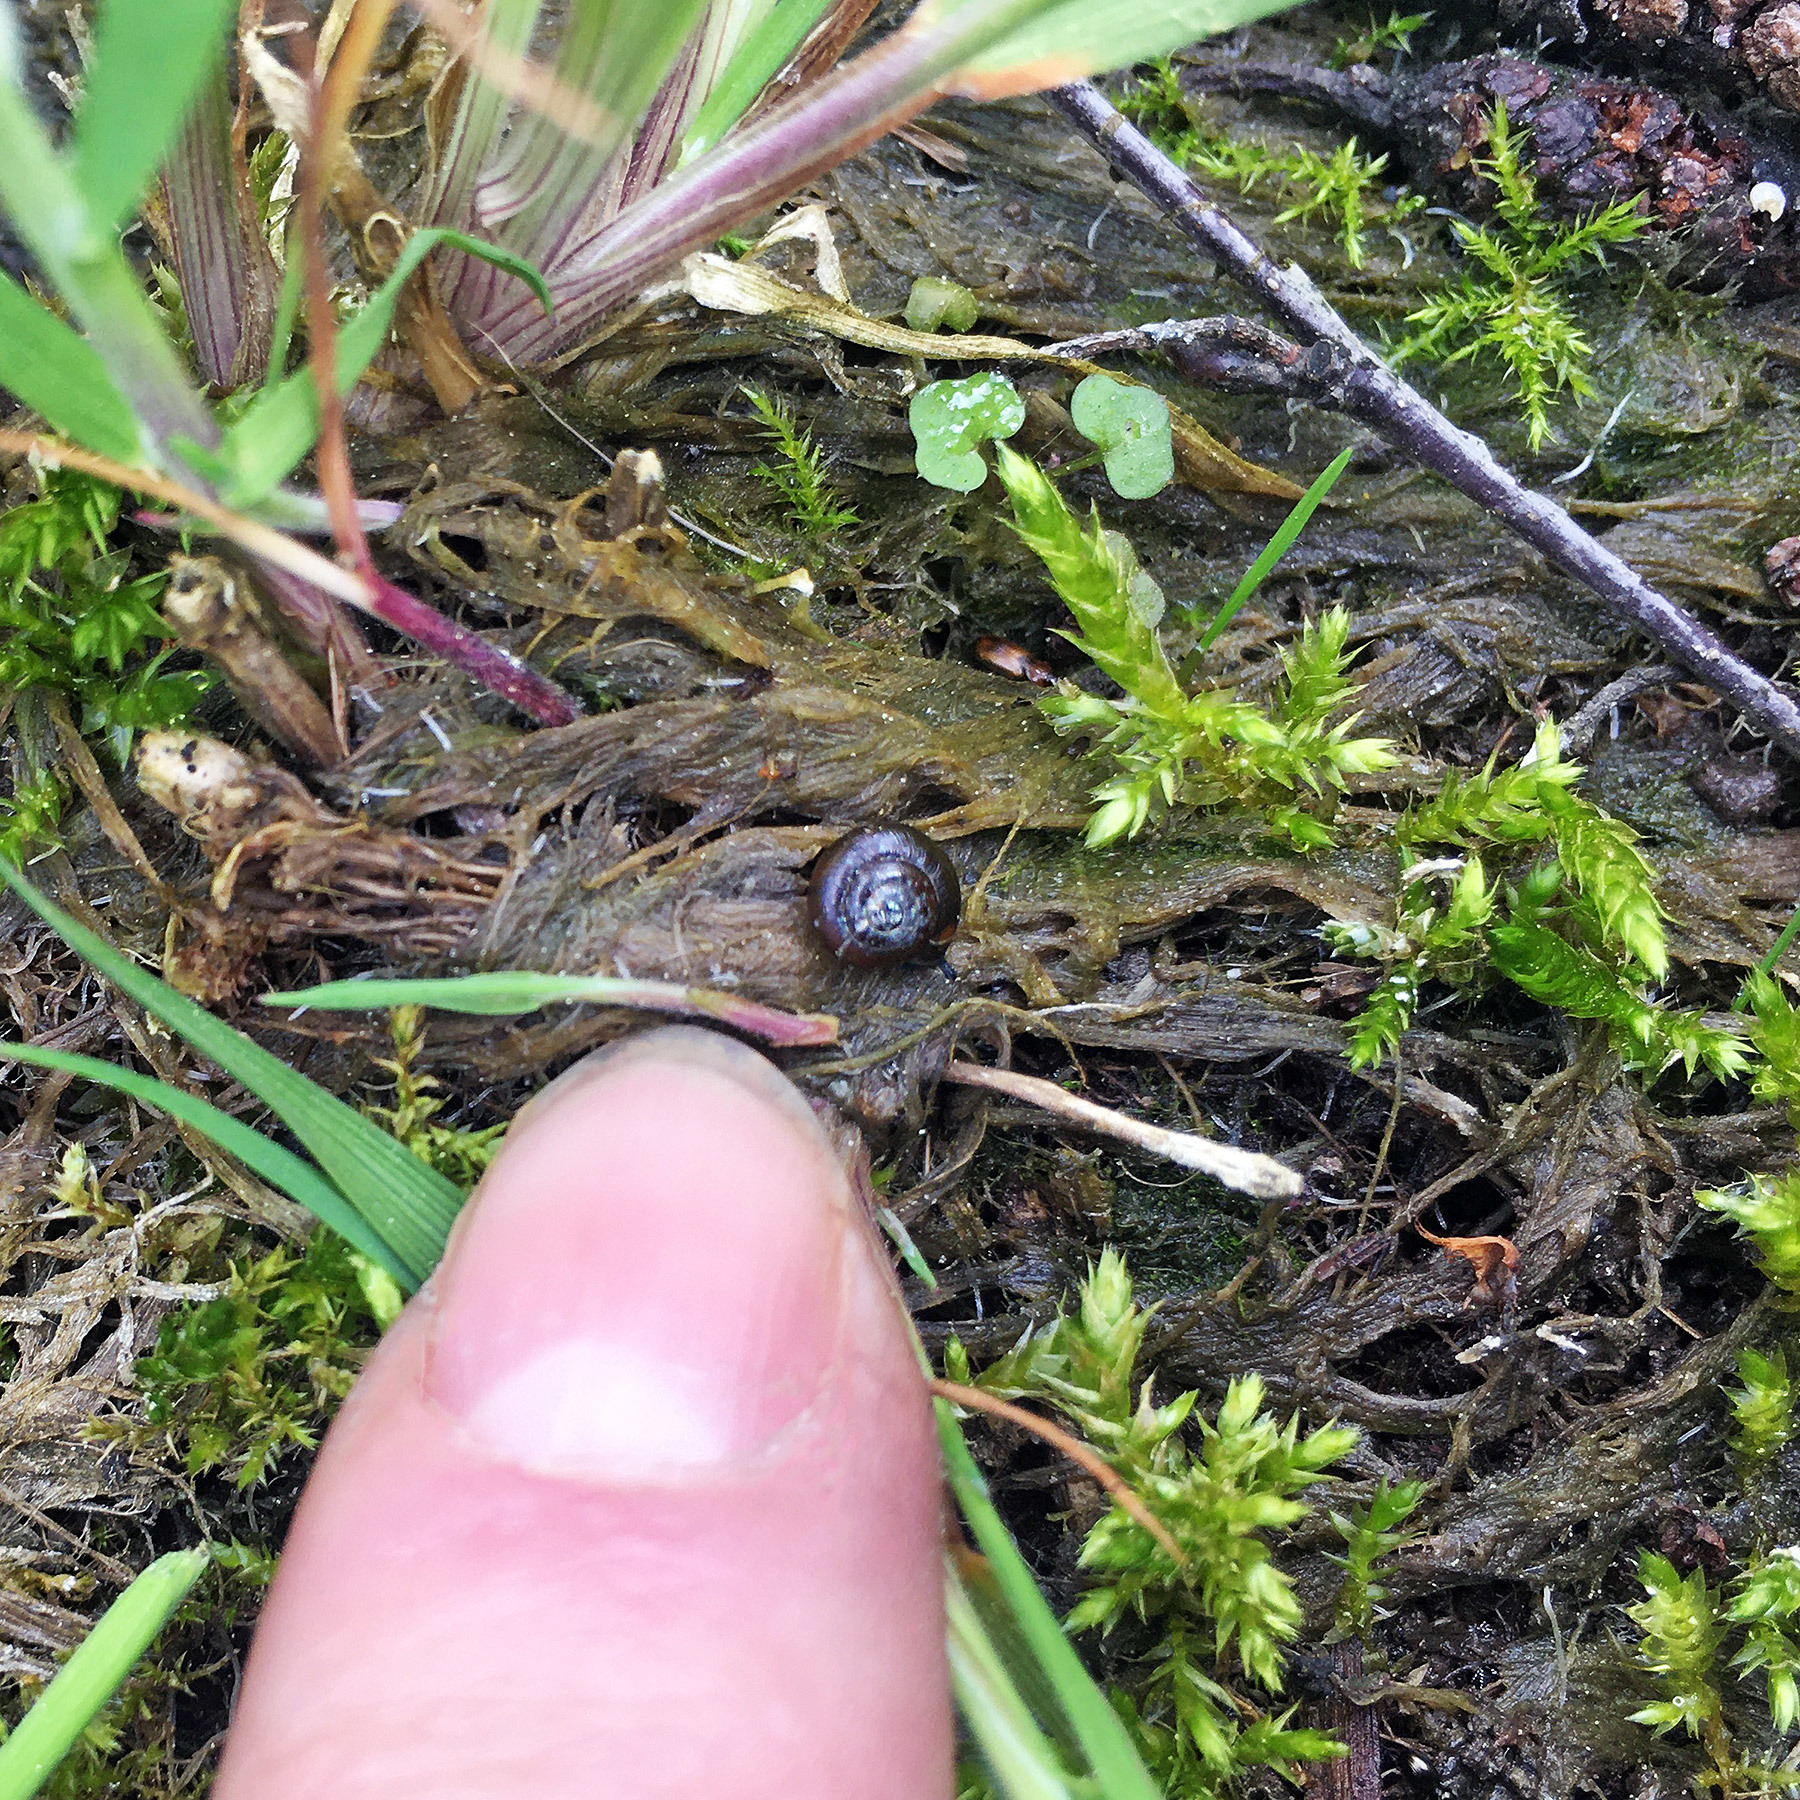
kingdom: Animalia
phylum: Mollusca
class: Gastropoda
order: Stylommatophora
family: Gastrodontidae
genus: Zonitoides
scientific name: Zonitoides nitidus
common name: Shiny glass snail
